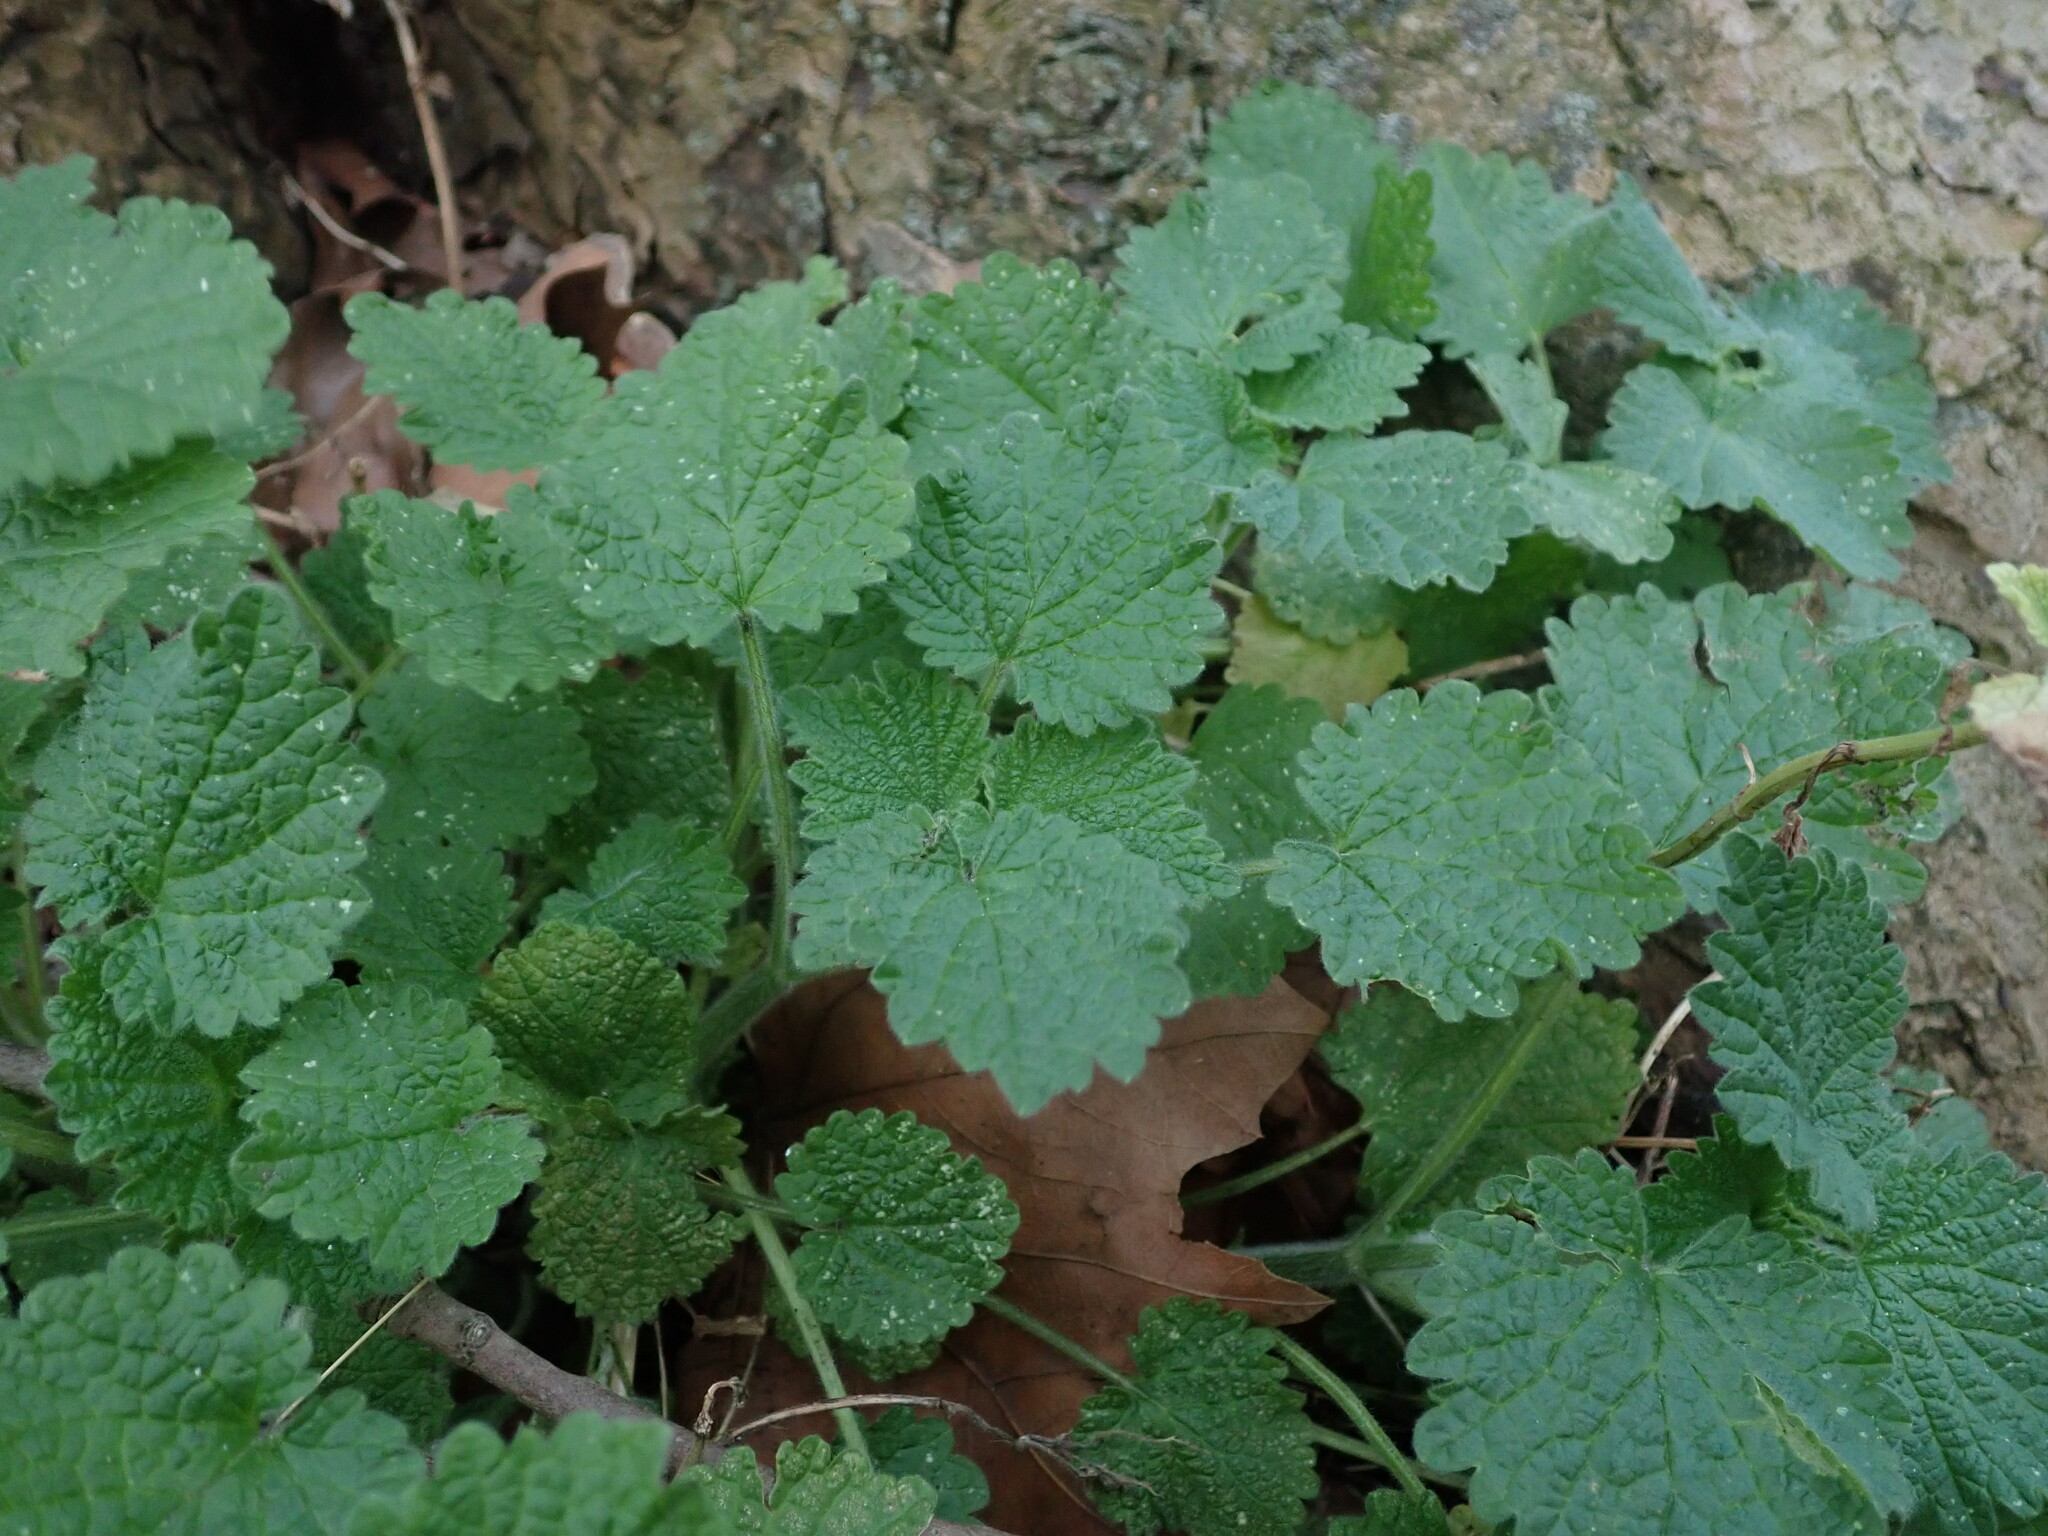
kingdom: Plantae
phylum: Tracheophyta
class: Magnoliopsida
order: Lamiales
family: Lamiaceae
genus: Ballota
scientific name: Ballota nigra
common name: Black horehound
